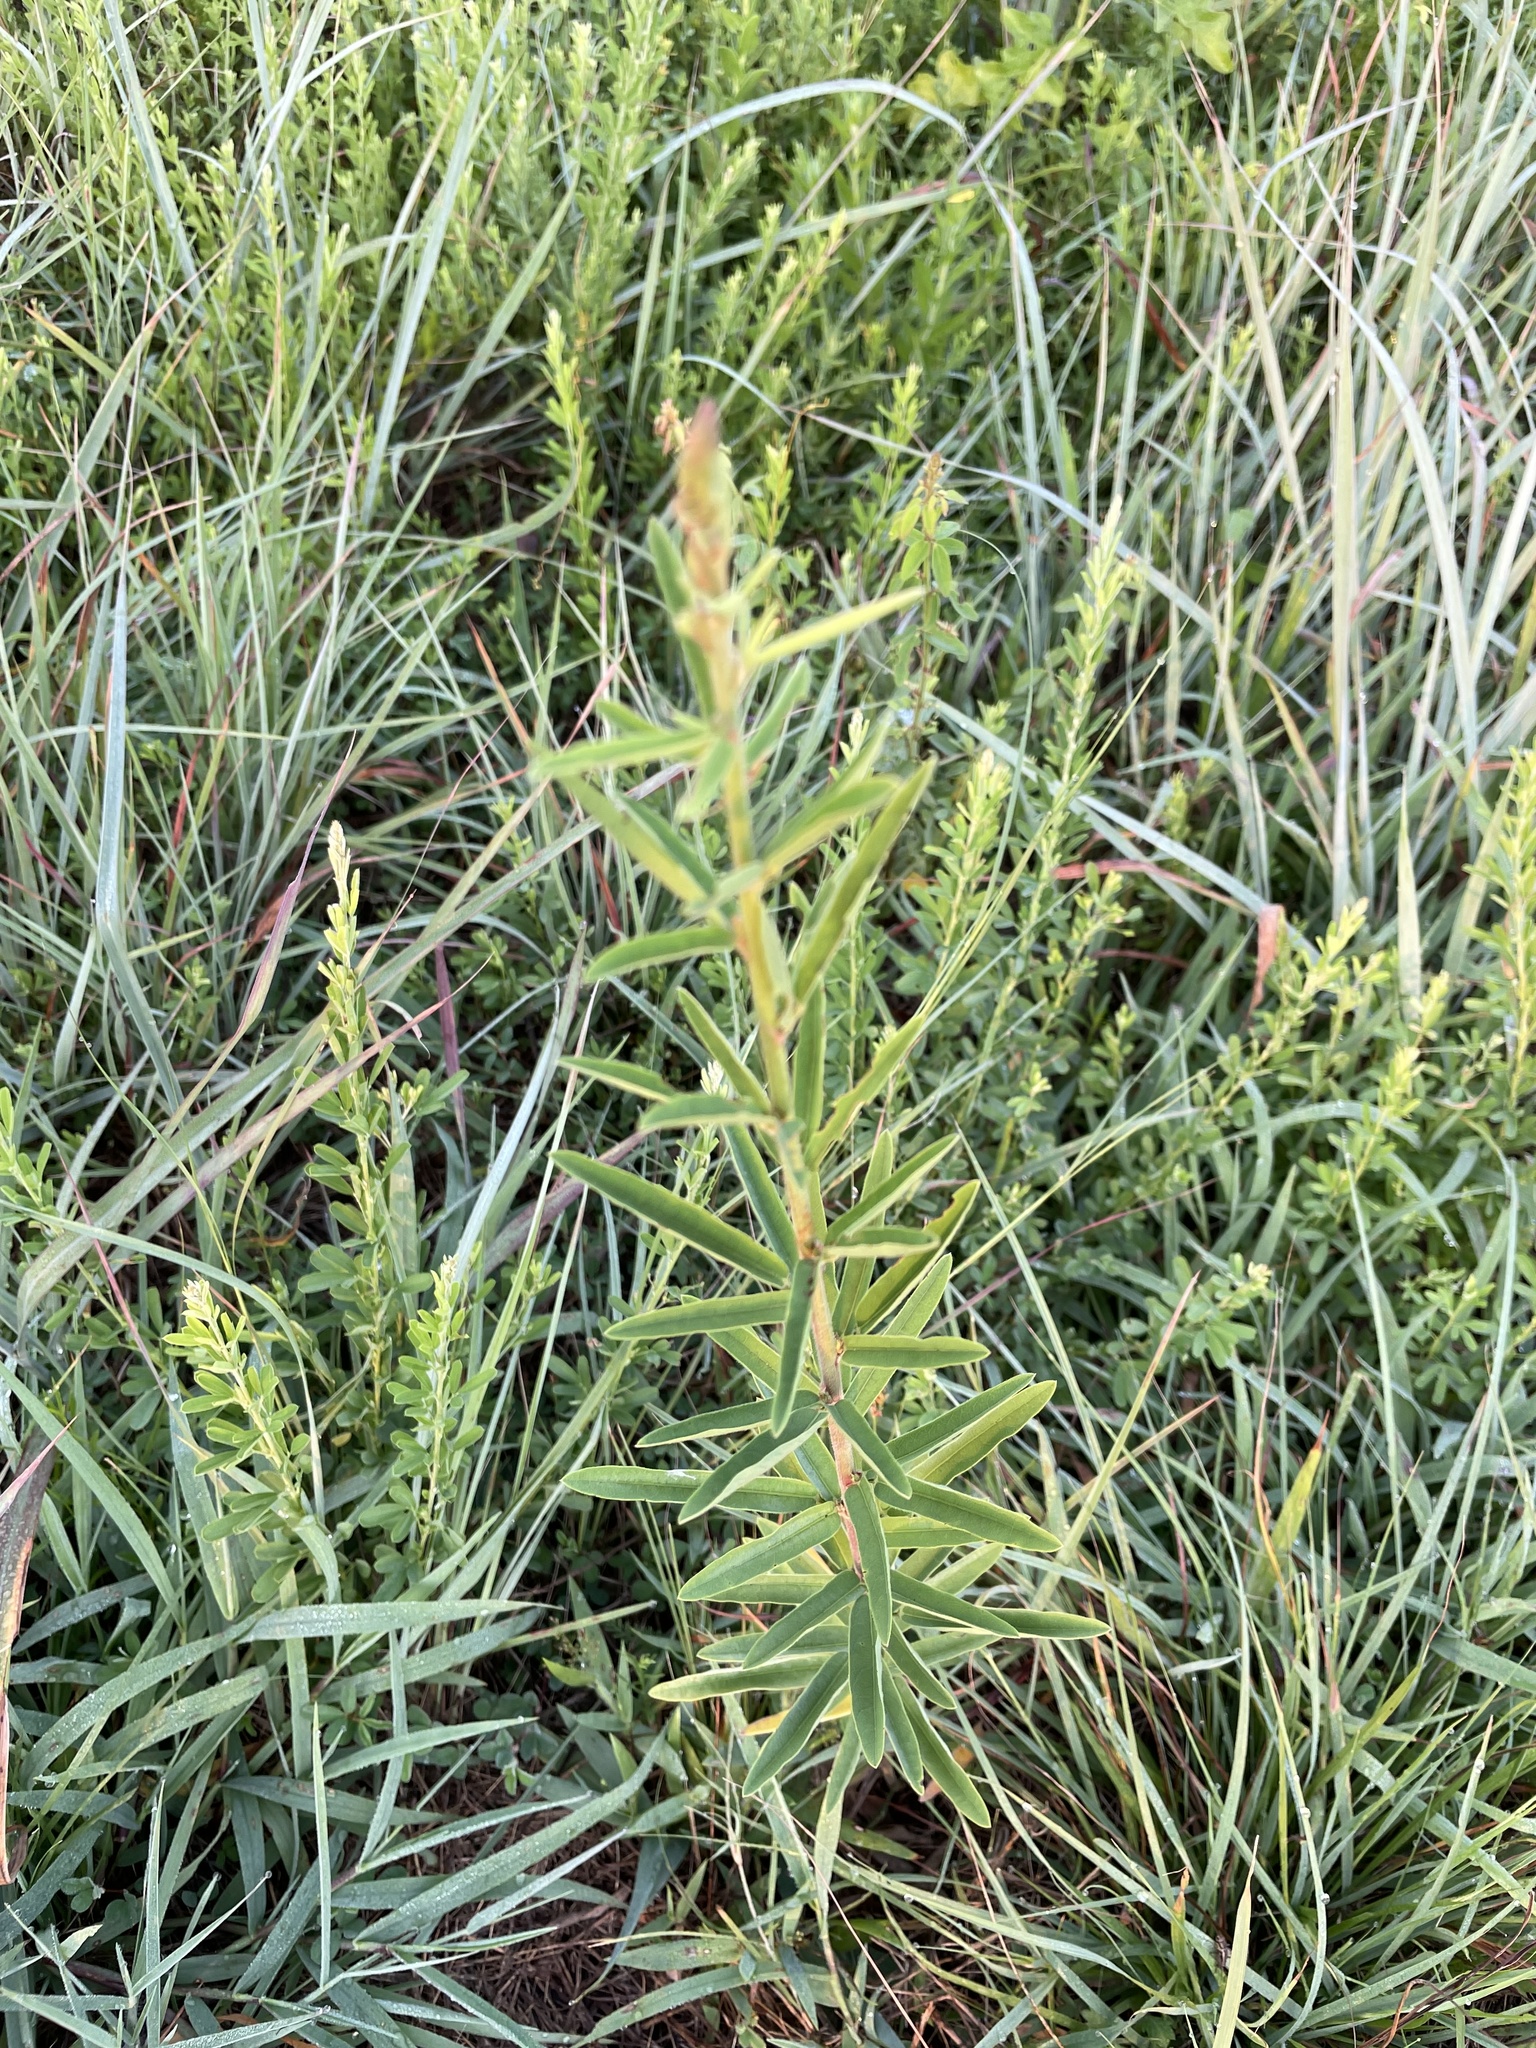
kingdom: Plantae
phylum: Tracheophyta
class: Magnoliopsida
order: Fabales
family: Fabaceae
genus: Desmodium
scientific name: Desmodium sessilifolium
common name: Sessile tick-clover
